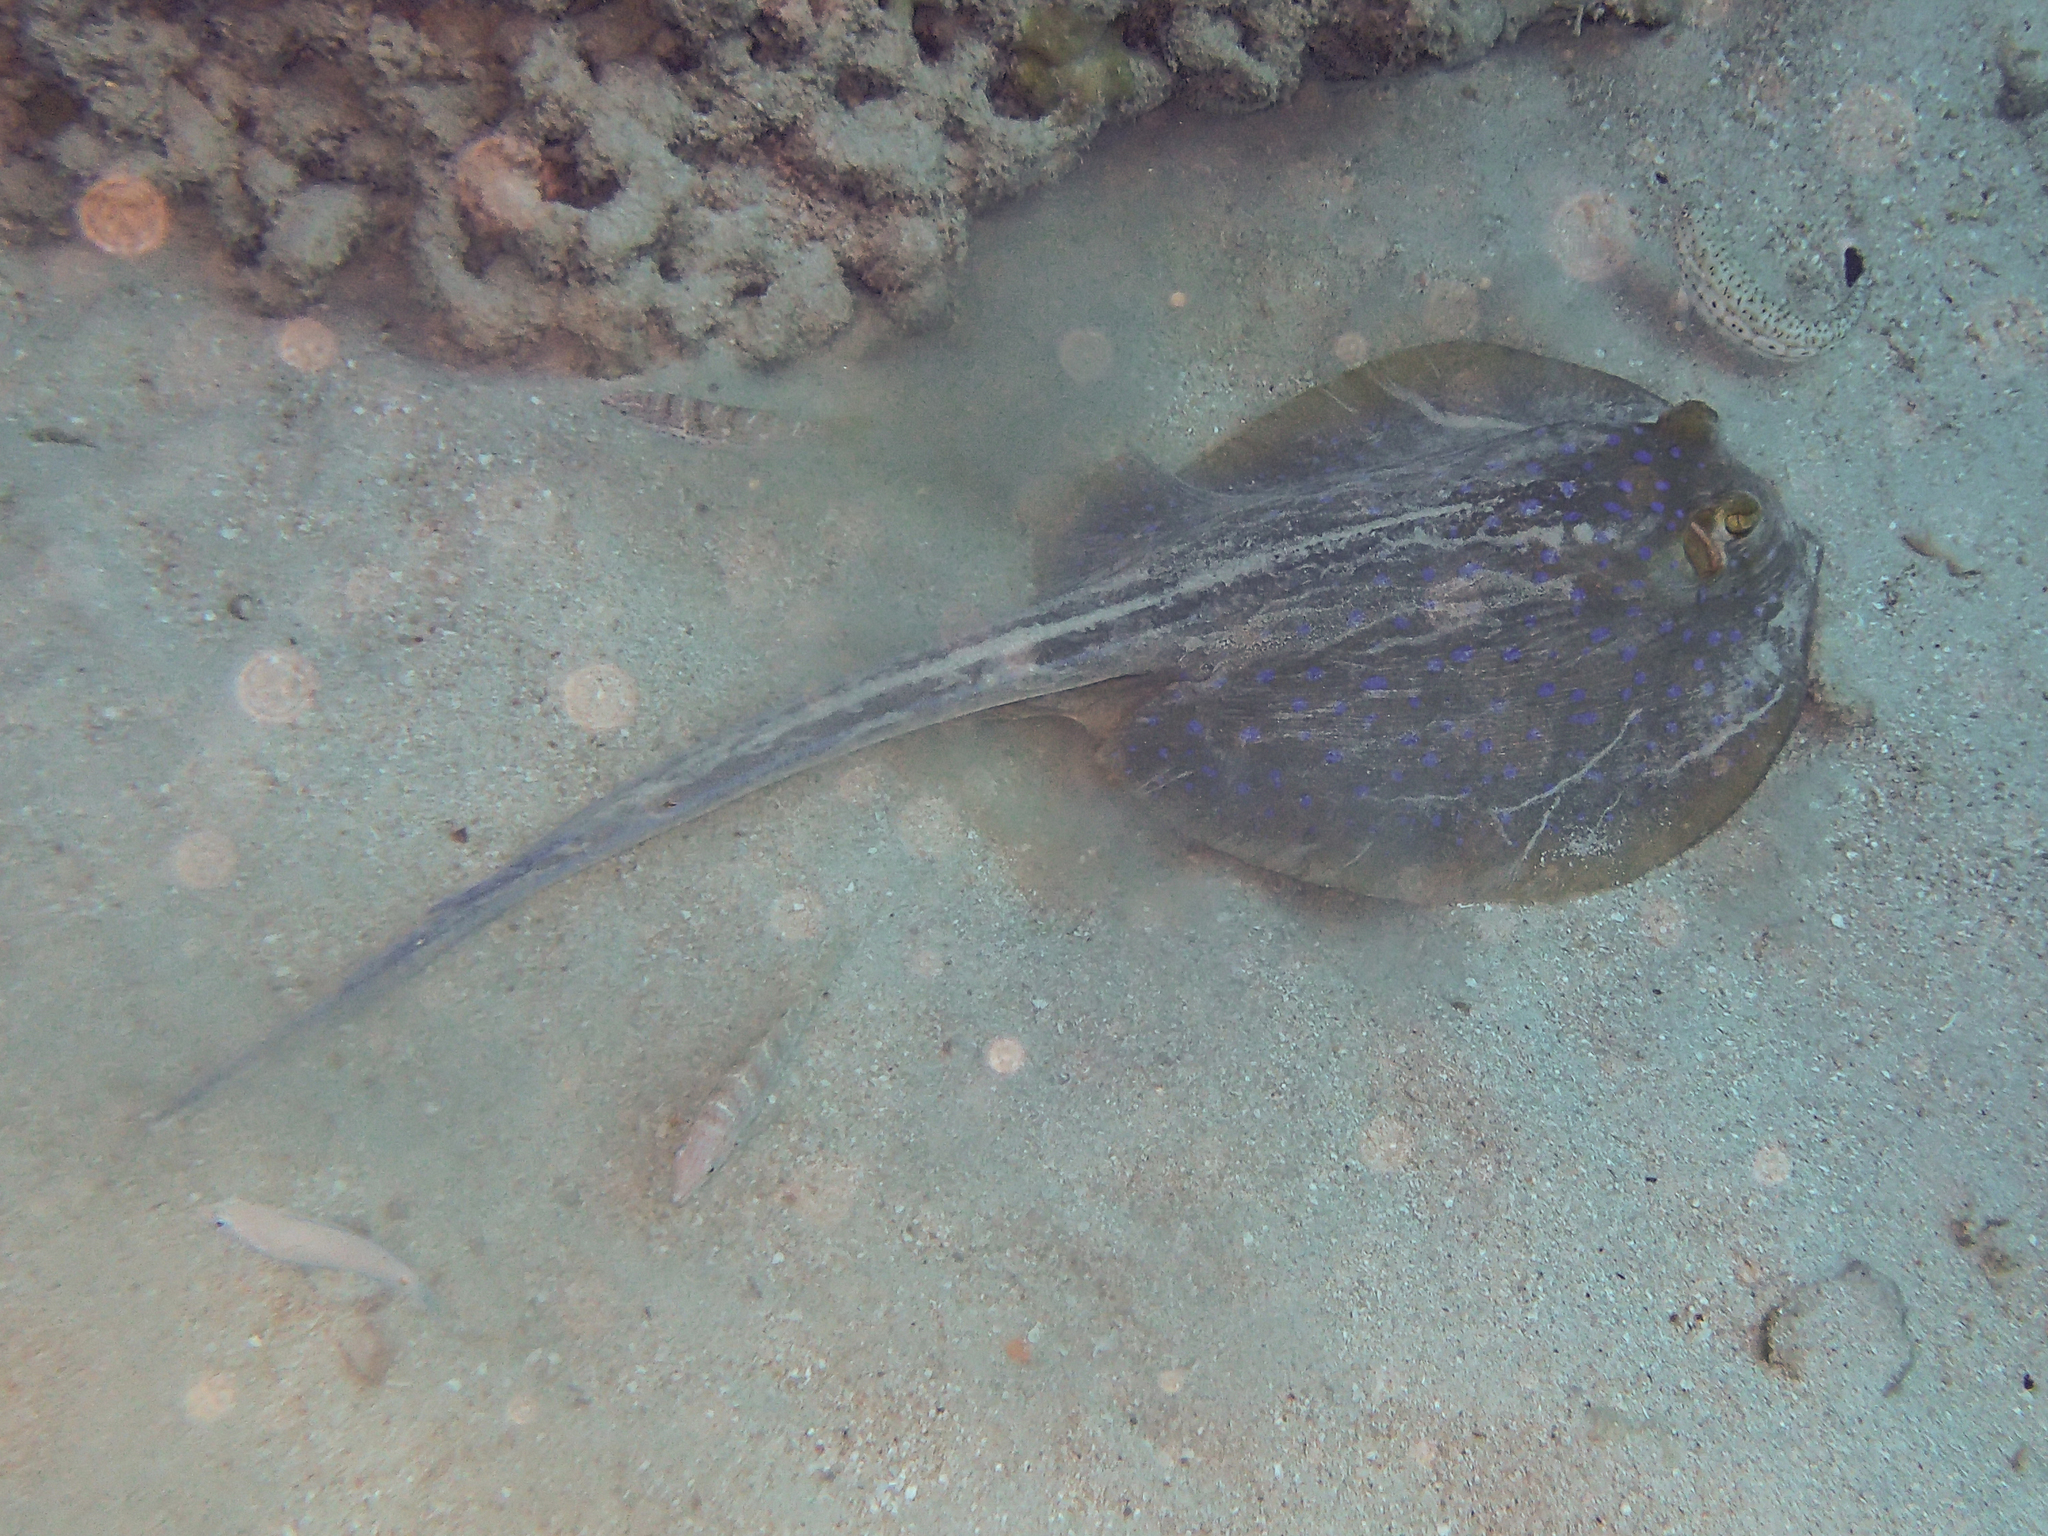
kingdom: Animalia
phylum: Chordata
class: Elasmobranchii
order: Myliobatiformes
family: Dasyatidae
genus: Taeniura
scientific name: Taeniura lymma
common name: Bluespotted ribbontail ray
